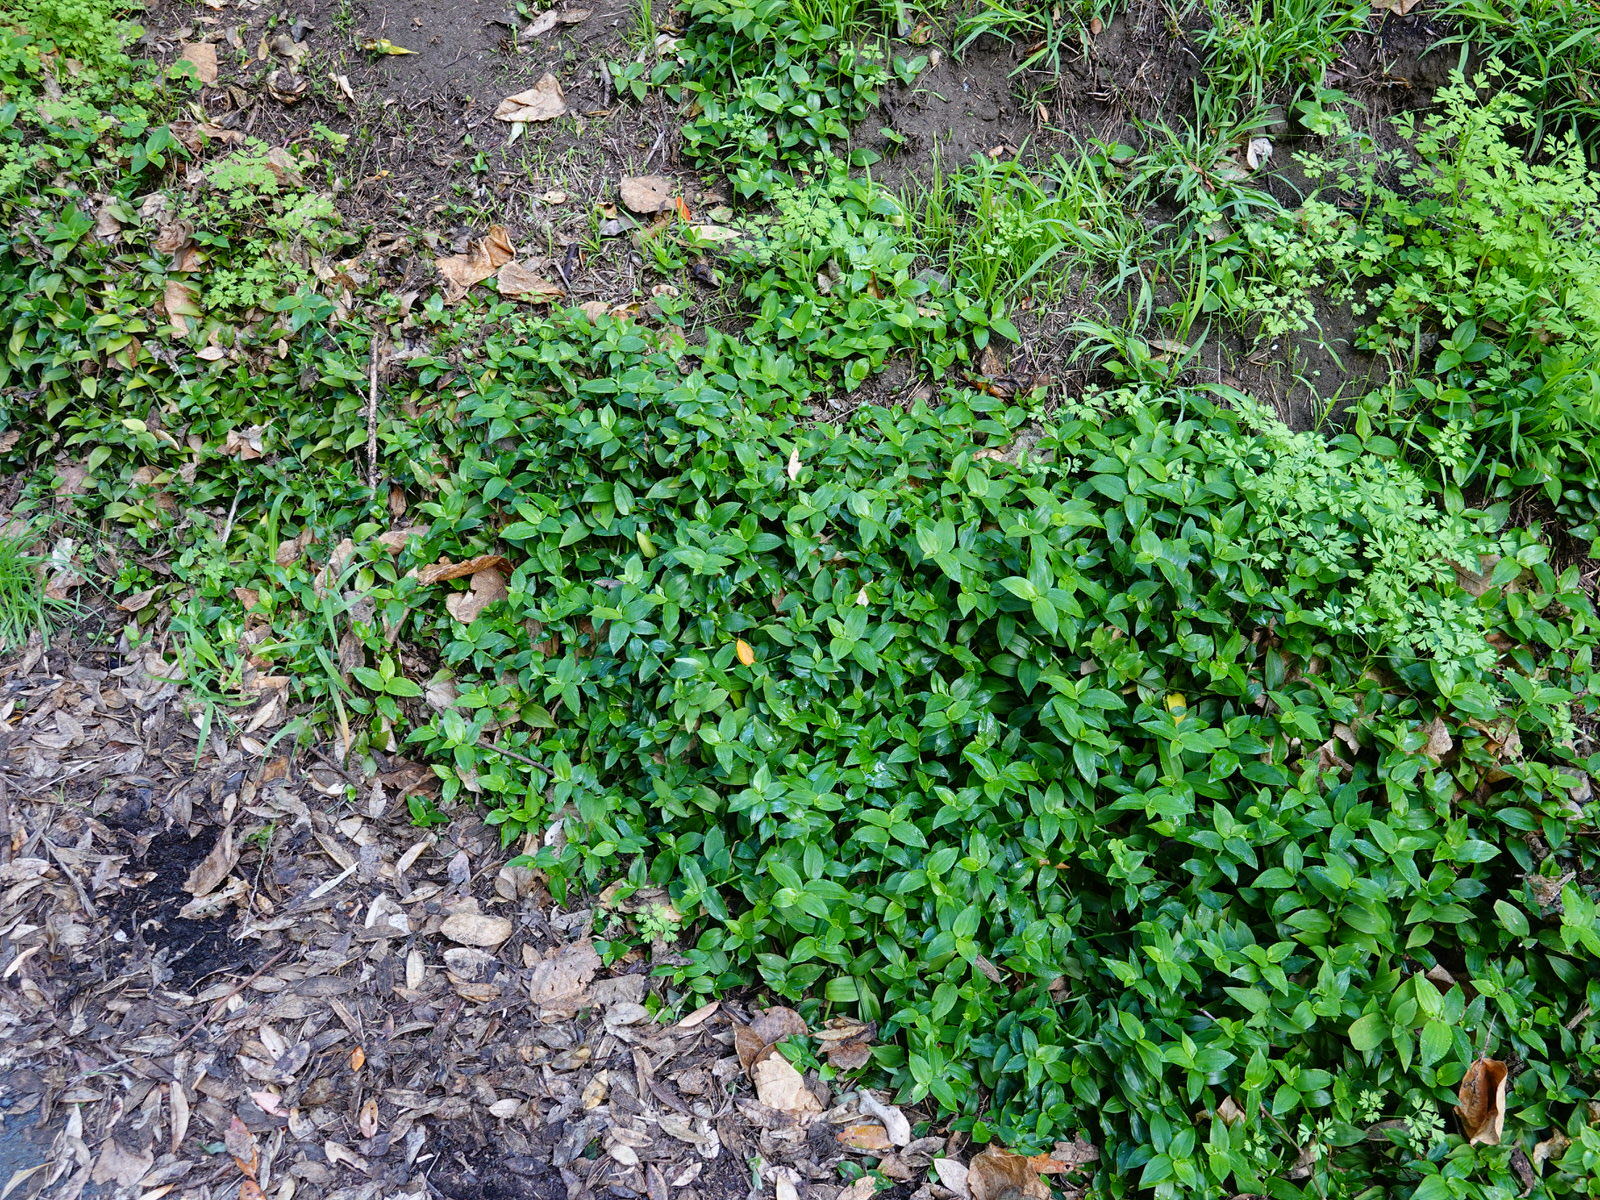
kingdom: Plantae
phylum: Tracheophyta
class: Liliopsida
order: Commelinales
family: Commelinaceae
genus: Tradescantia
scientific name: Tradescantia fluminensis
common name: Wandering-jew
